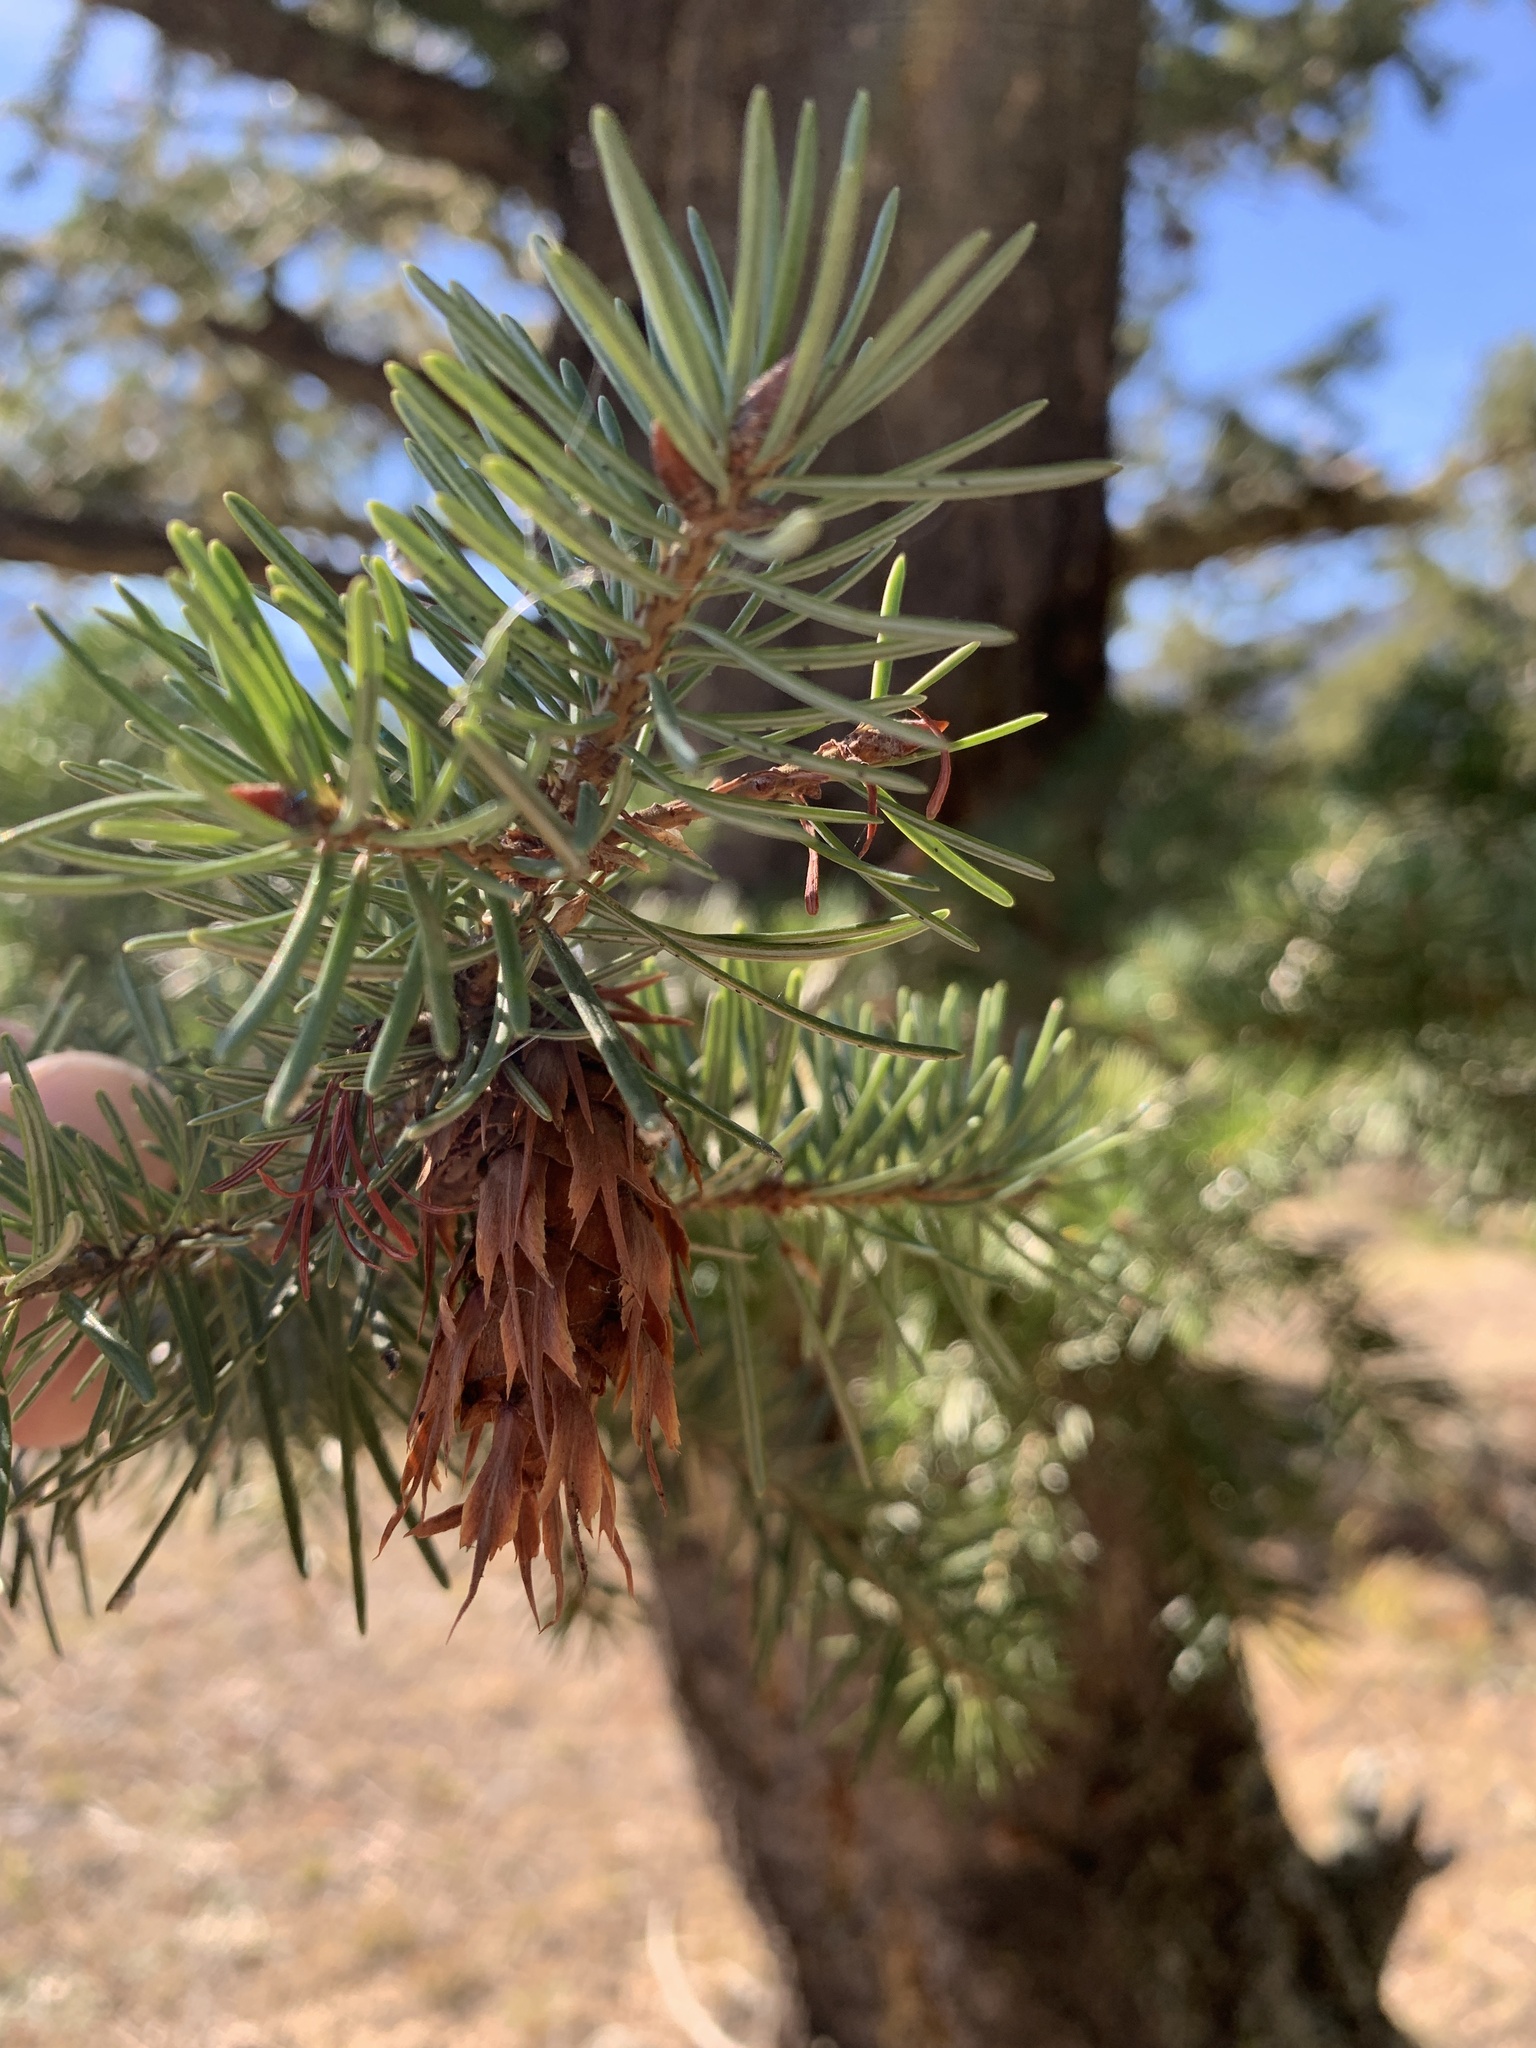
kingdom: Plantae
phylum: Tracheophyta
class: Pinopsida
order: Pinales
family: Pinaceae
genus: Pseudotsuga
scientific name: Pseudotsuga menziesii
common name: Douglas fir
